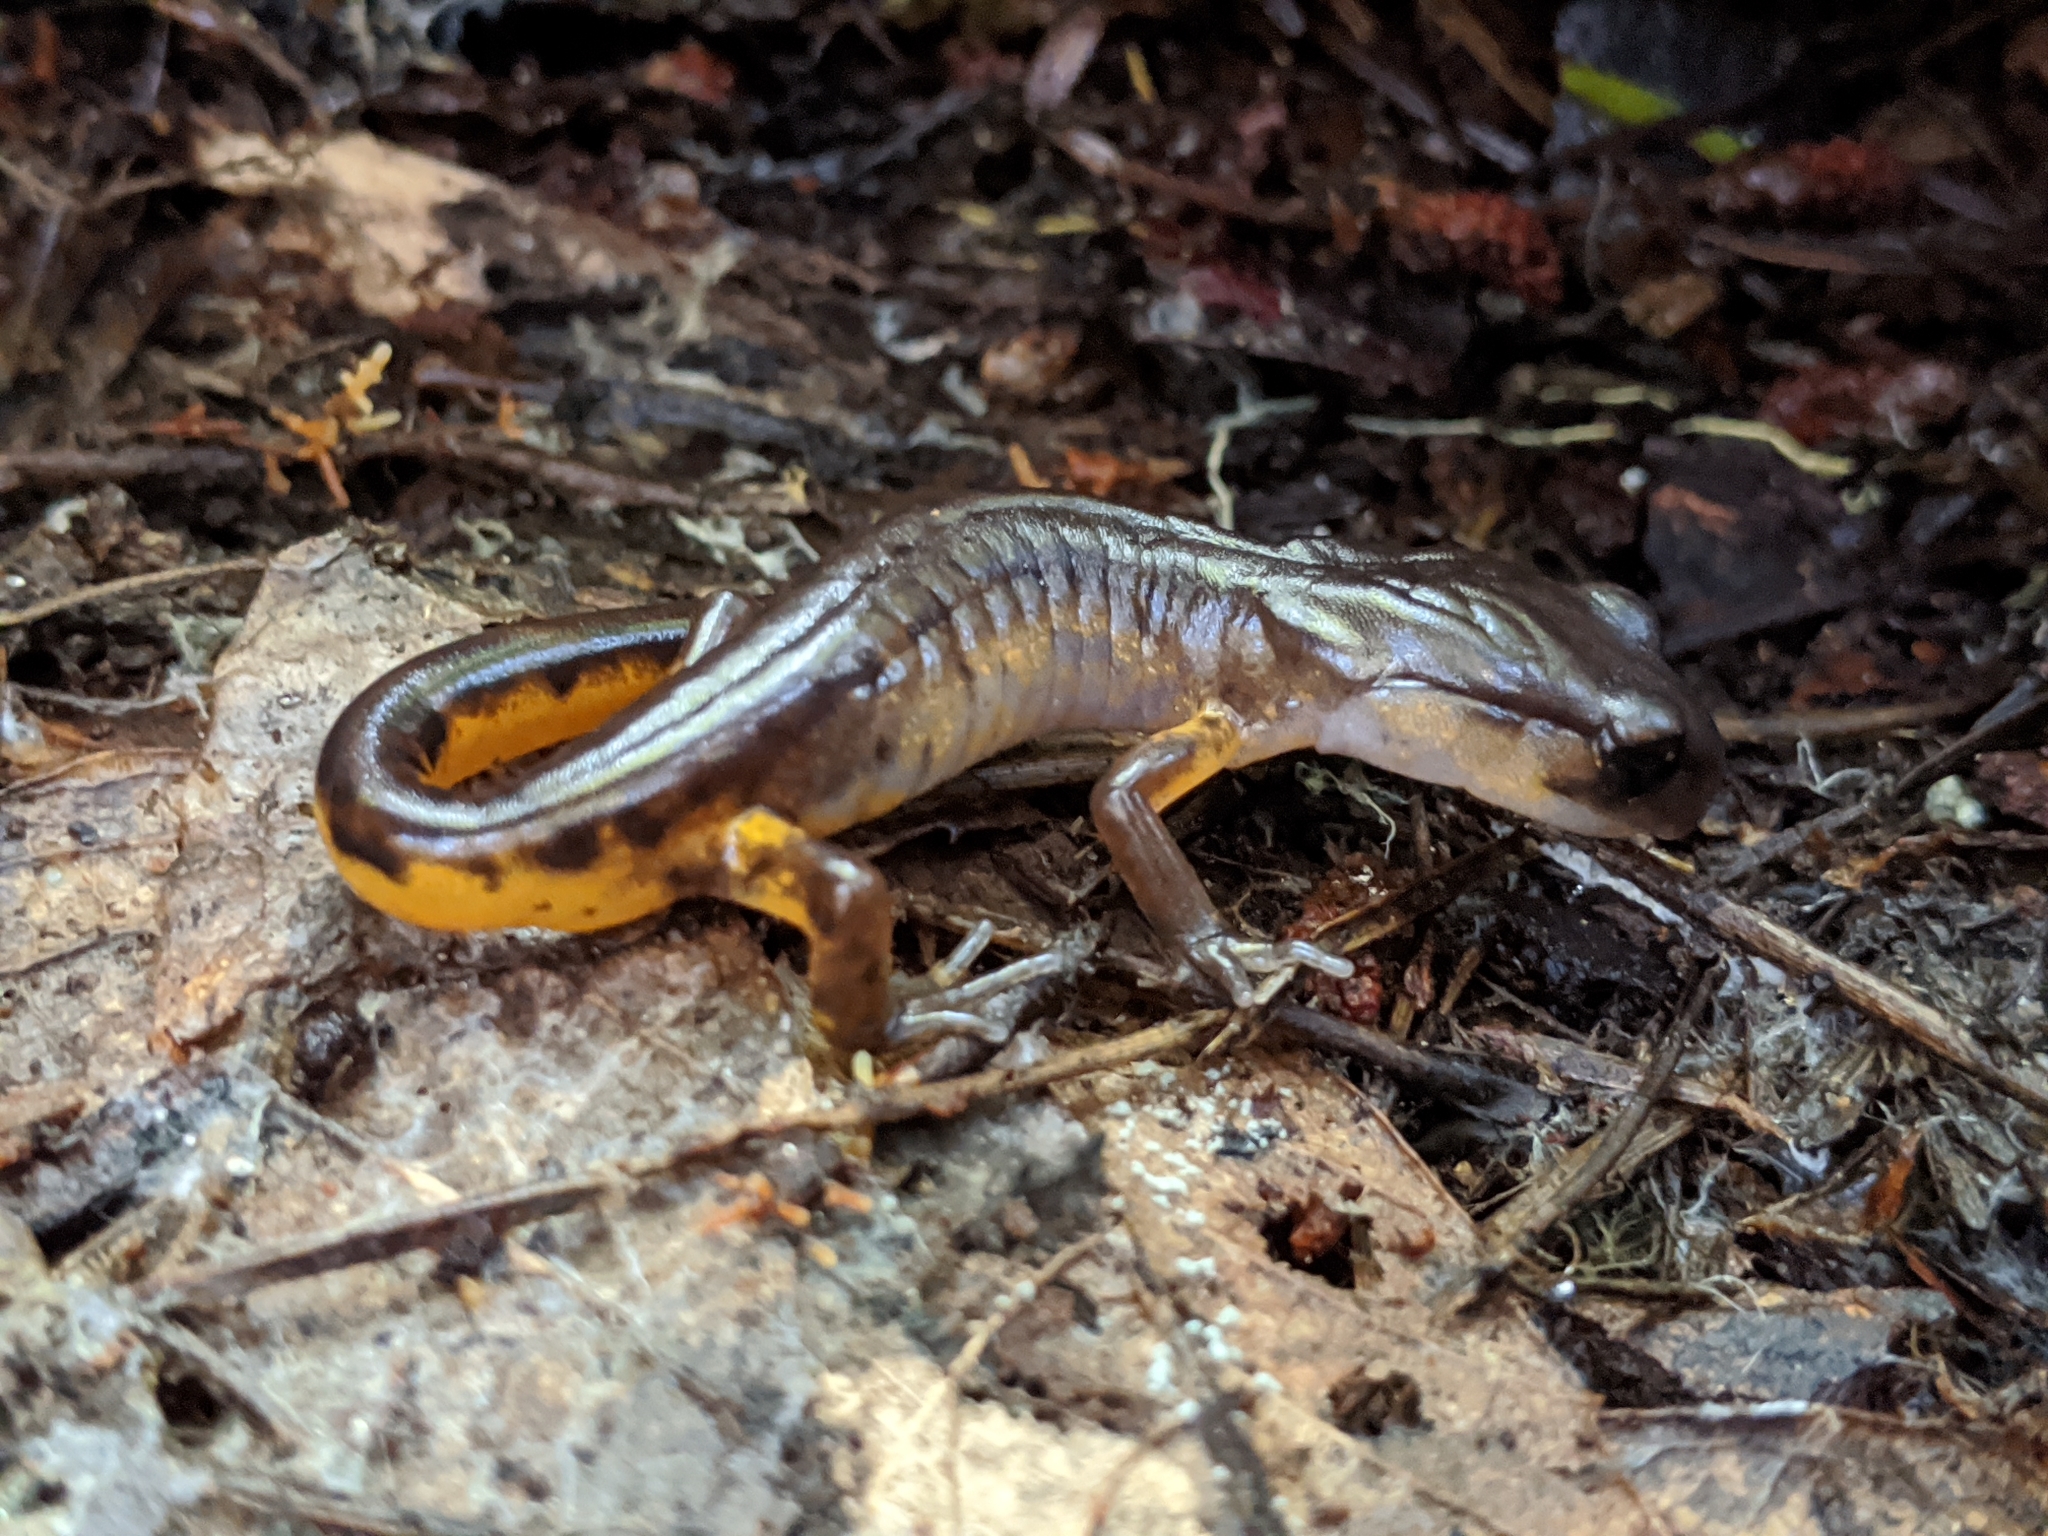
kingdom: Animalia
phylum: Chordata
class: Amphibia
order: Caudata
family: Plethodontidae
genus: Ensatina
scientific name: Ensatina eschscholtzii
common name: Ensatina
